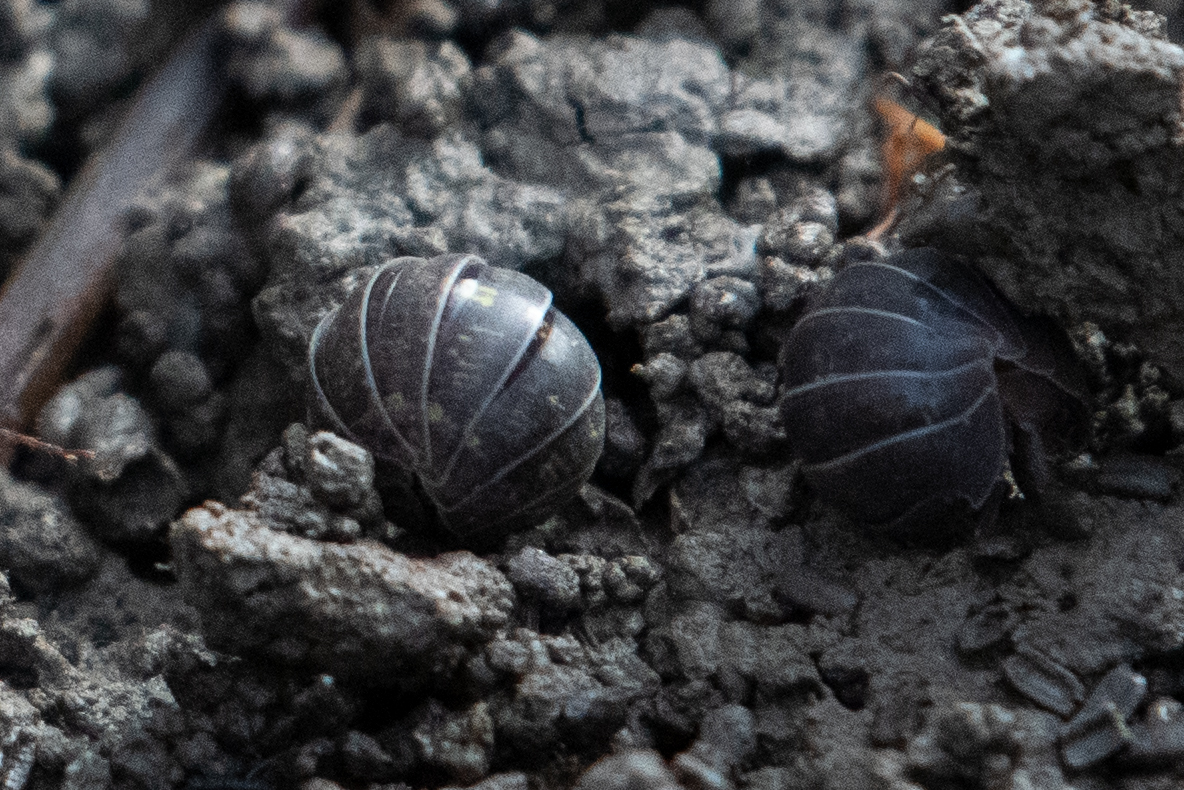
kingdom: Animalia
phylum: Arthropoda
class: Malacostraca
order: Isopoda
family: Armadillidiidae
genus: Armadillidium
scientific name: Armadillidium vulgare
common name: Common pill woodlouse
